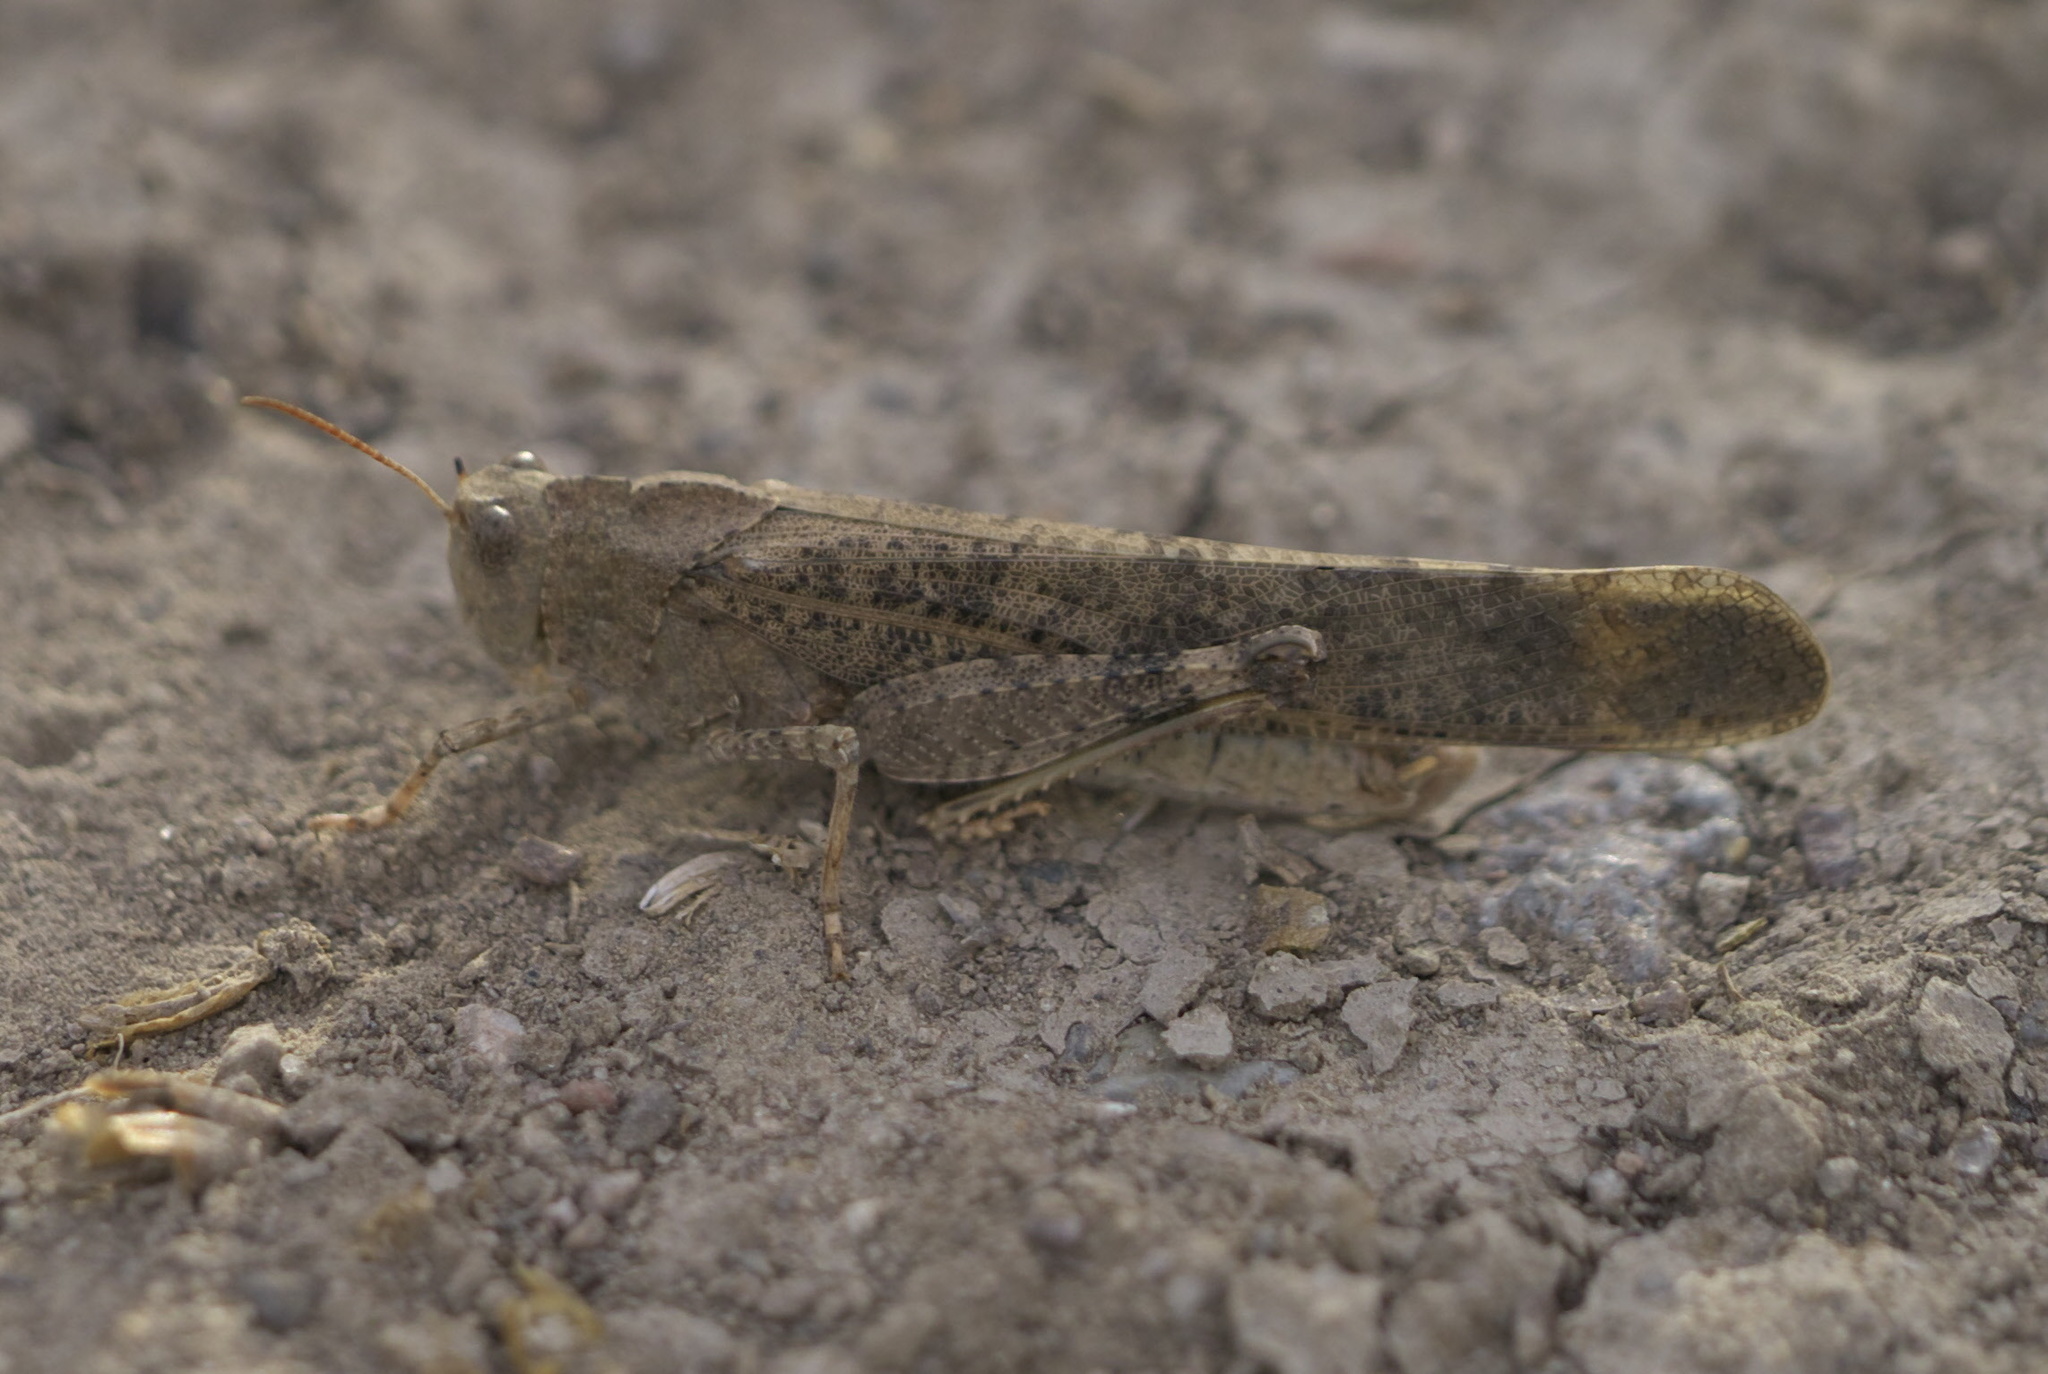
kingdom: Animalia
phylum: Arthropoda
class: Insecta
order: Orthoptera
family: Acrididae
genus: Dissosteira
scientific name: Dissosteira carolina
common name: Carolina grasshopper
